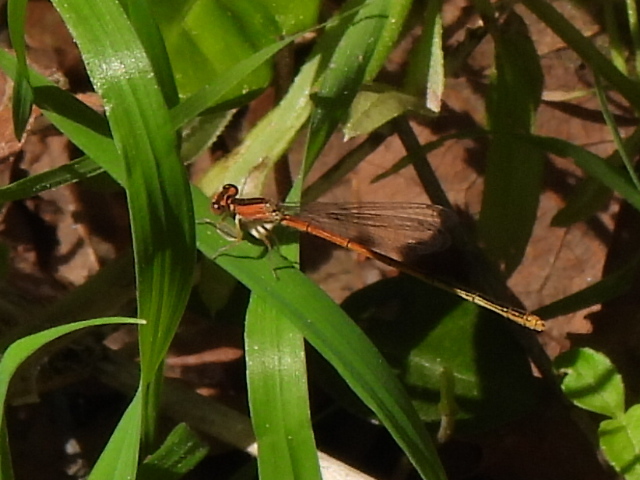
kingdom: Animalia
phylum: Arthropoda
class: Insecta
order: Odonata
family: Coenagrionidae
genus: Ischnura
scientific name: Ischnura hastata
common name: Citrine forktail
